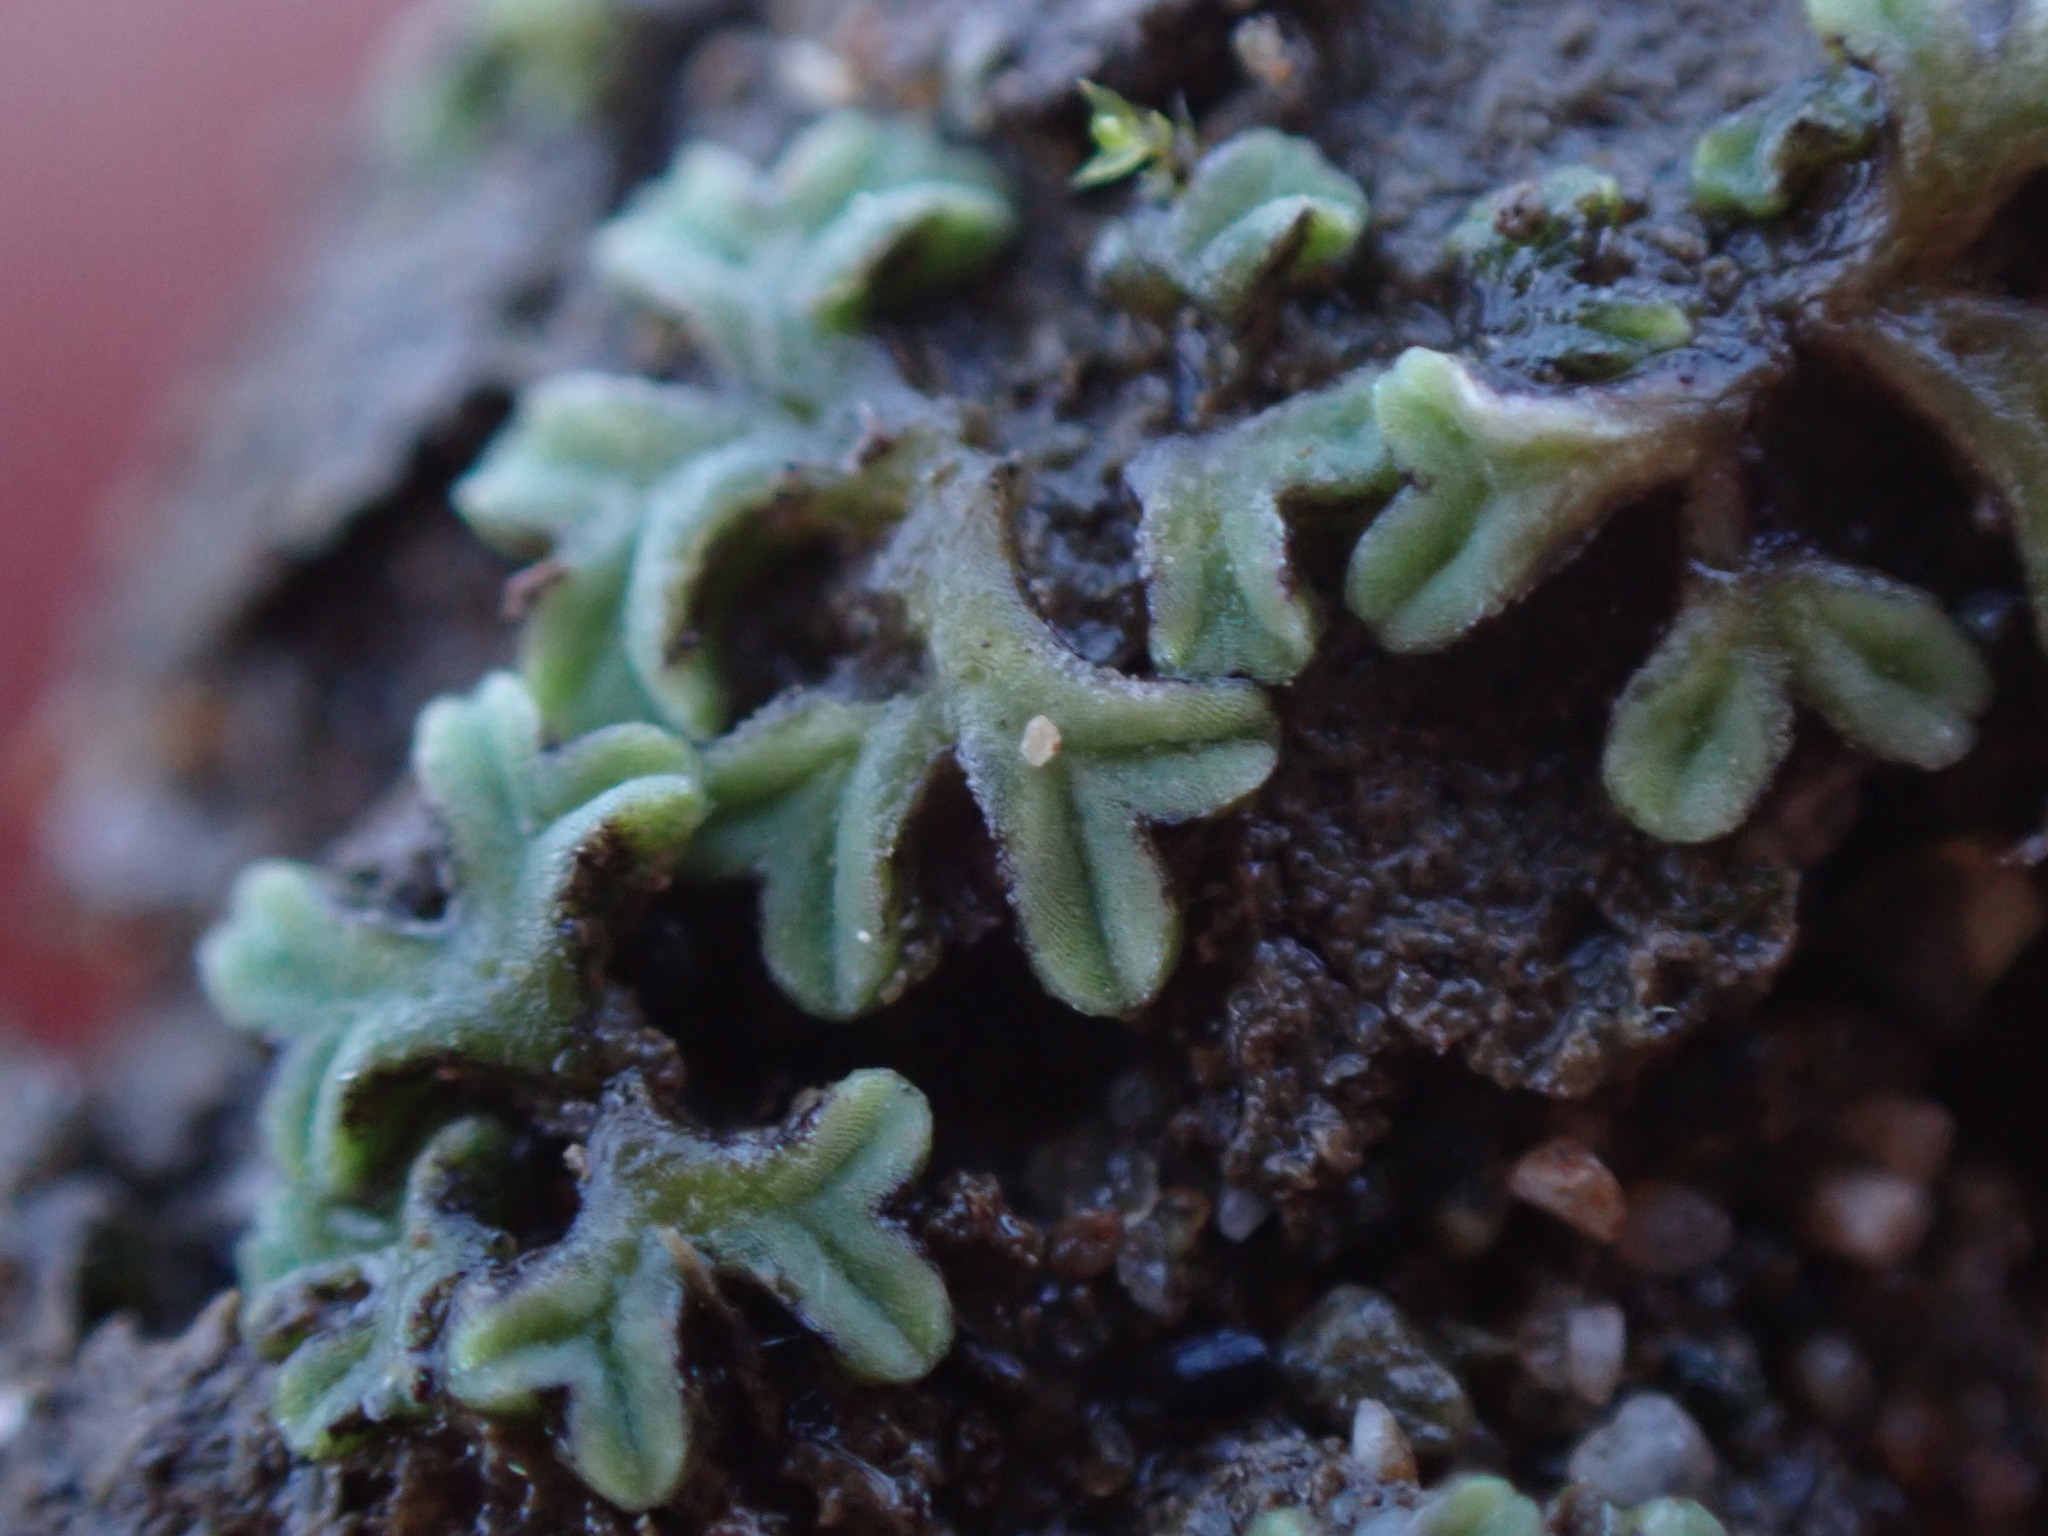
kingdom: Plantae
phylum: Marchantiophyta
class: Marchantiopsida
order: Marchantiales
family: Ricciaceae
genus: Riccia
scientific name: Riccia sorocarpa
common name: Common crystalwort
